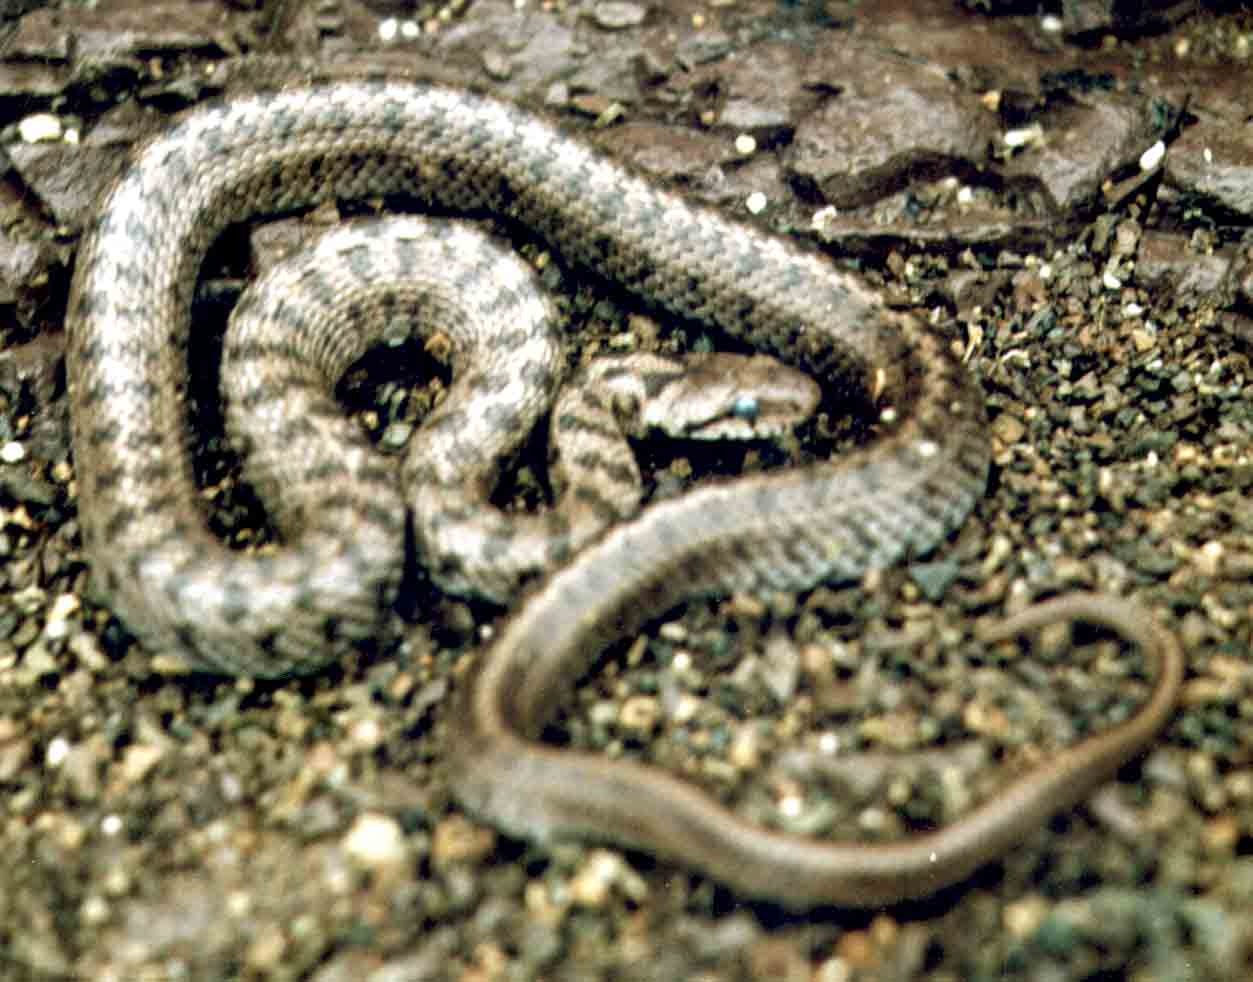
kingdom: Animalia
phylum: Chordata
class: Squamata
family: Colubridae
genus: Zamenis
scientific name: Zamenis hohenackeri
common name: Transcaucasian rat snake
